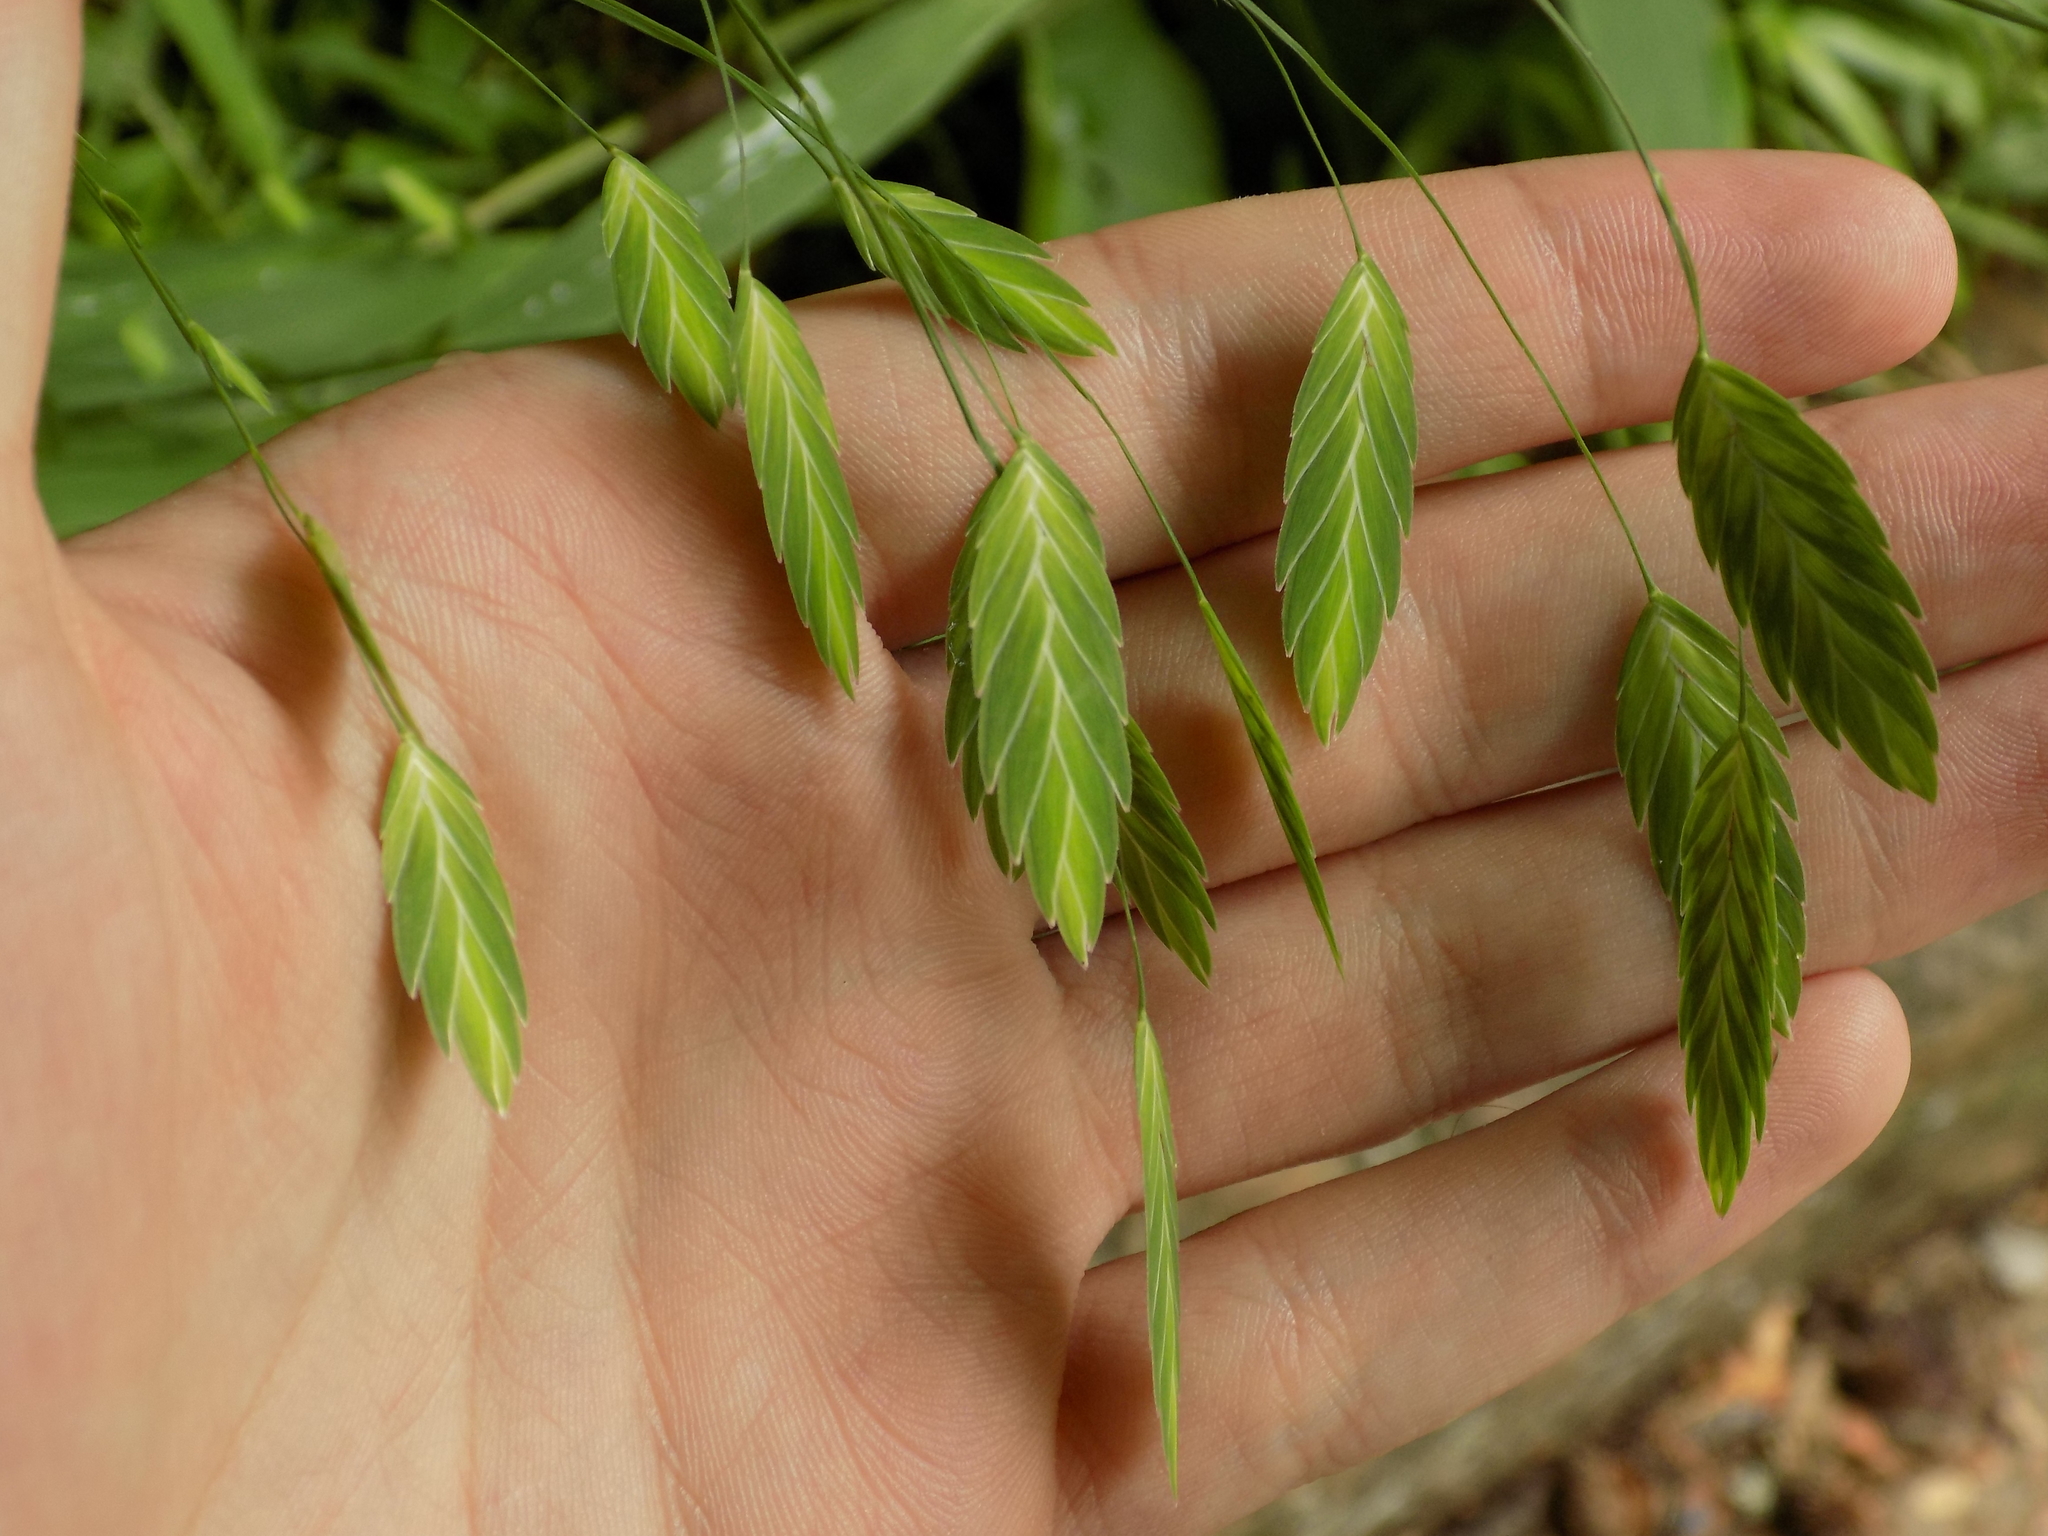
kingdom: Plantae
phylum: Tracheophyta
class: Liliopsida
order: Poales
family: Poaceae
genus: Chasmanthium
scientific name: Chasmanthium latifolium
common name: Broad-leaved chasmanthium
